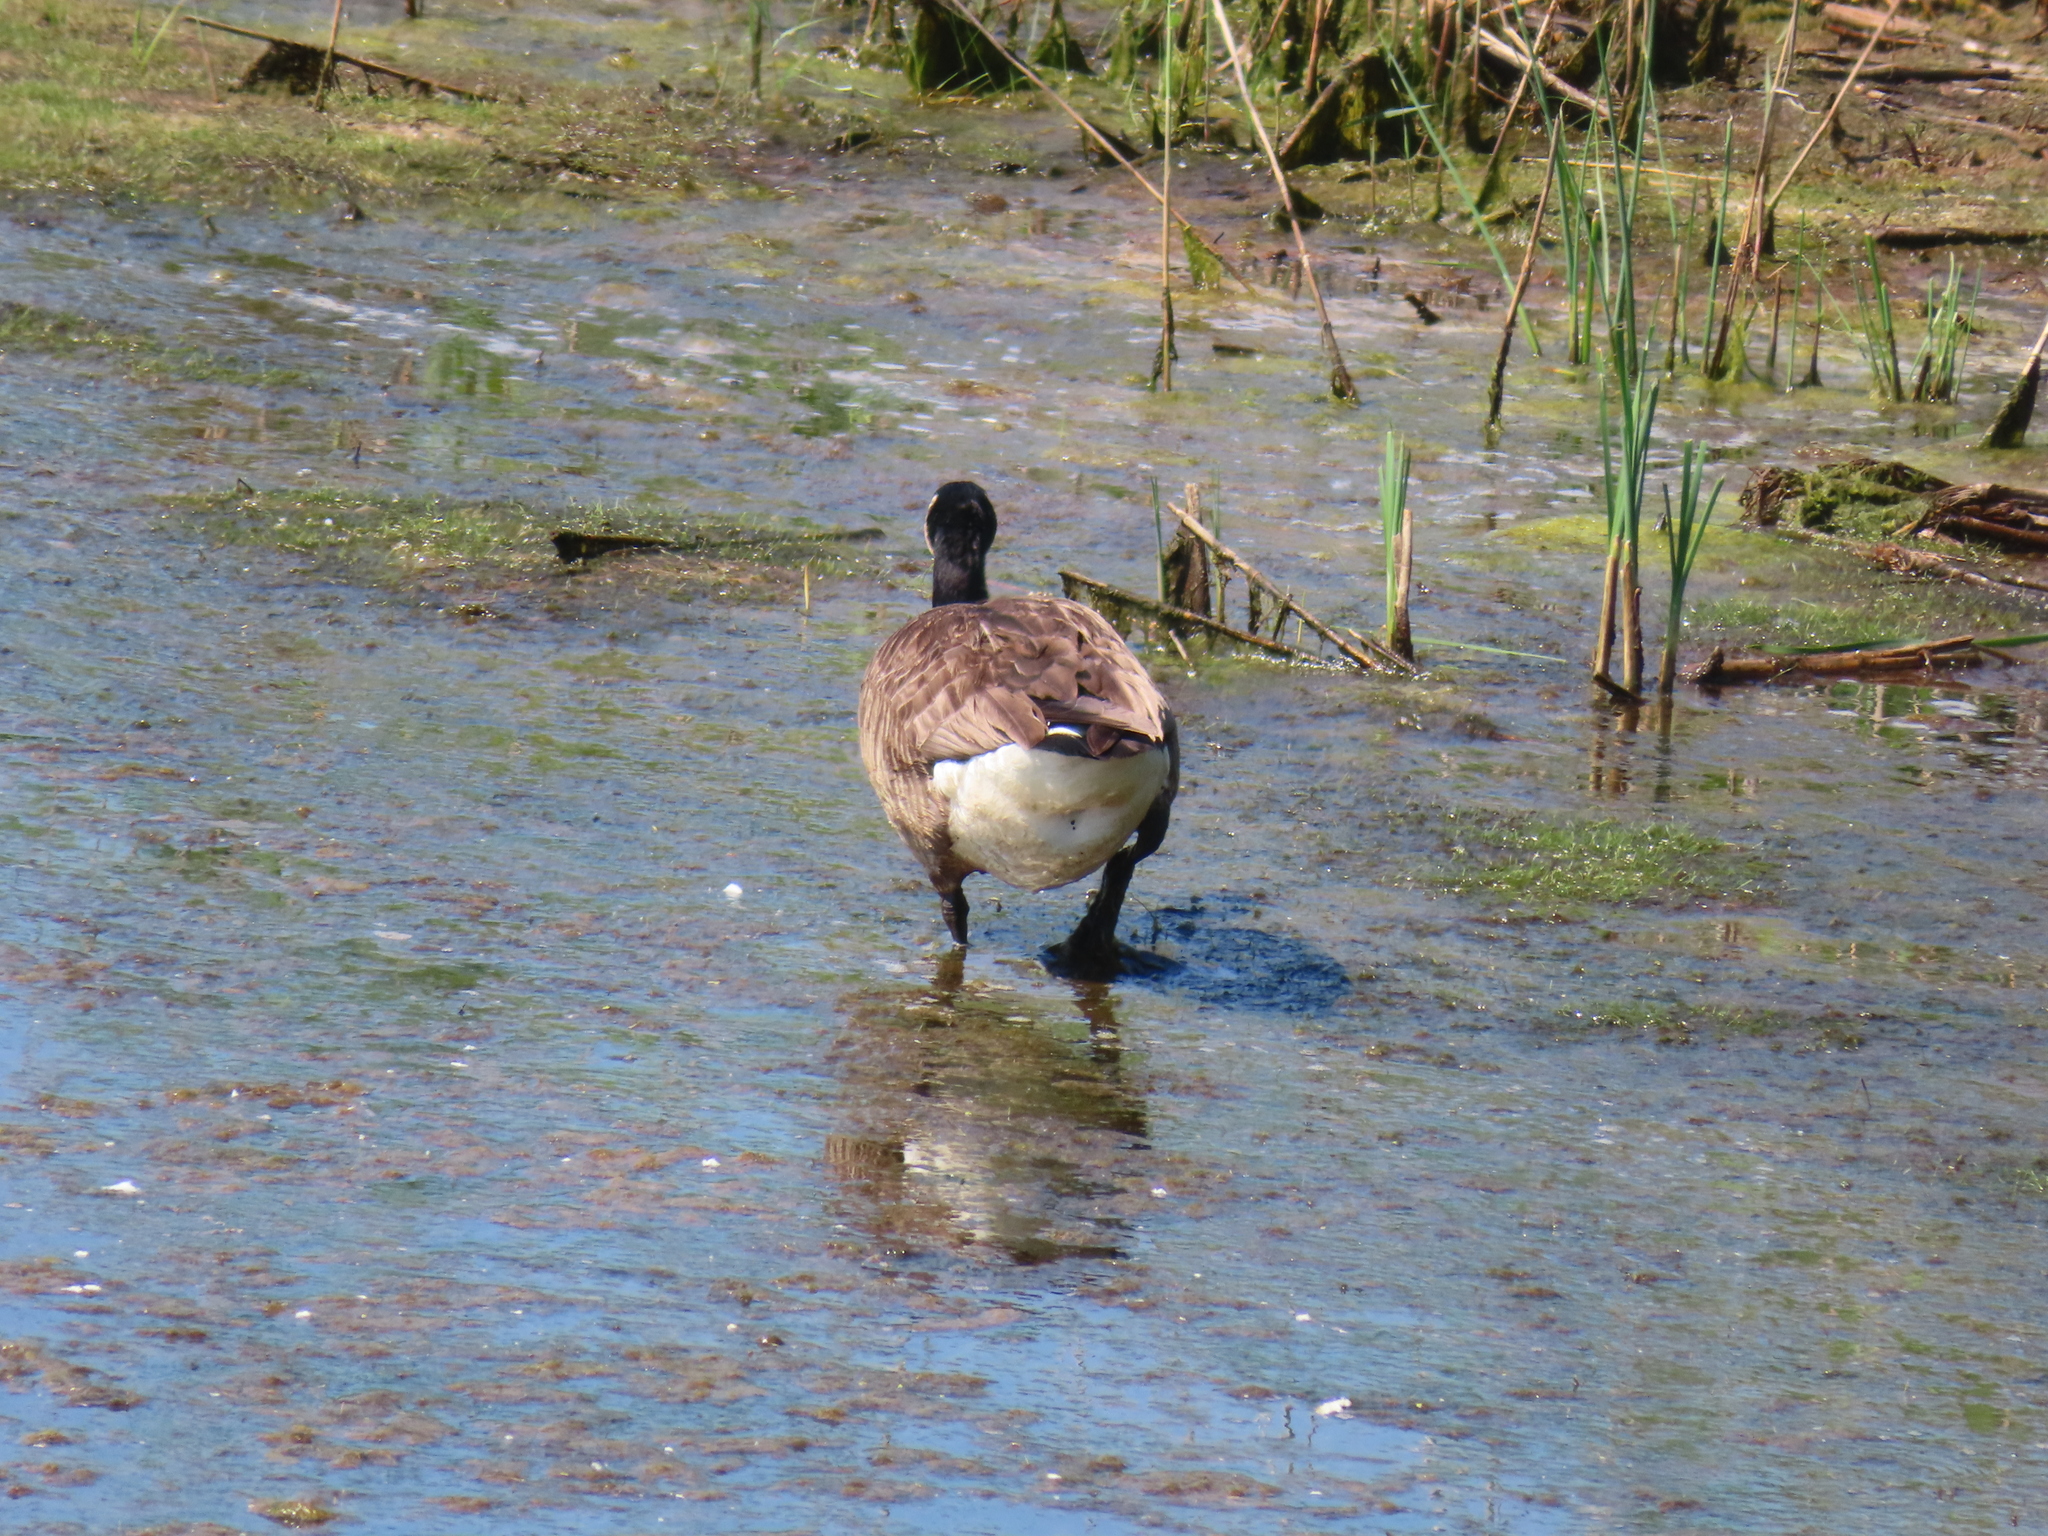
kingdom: Animalia
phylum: Chordata
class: Aves
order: Anseriformes
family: Anatidae
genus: Branta
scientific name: Branta canadensis
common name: Canada goose
